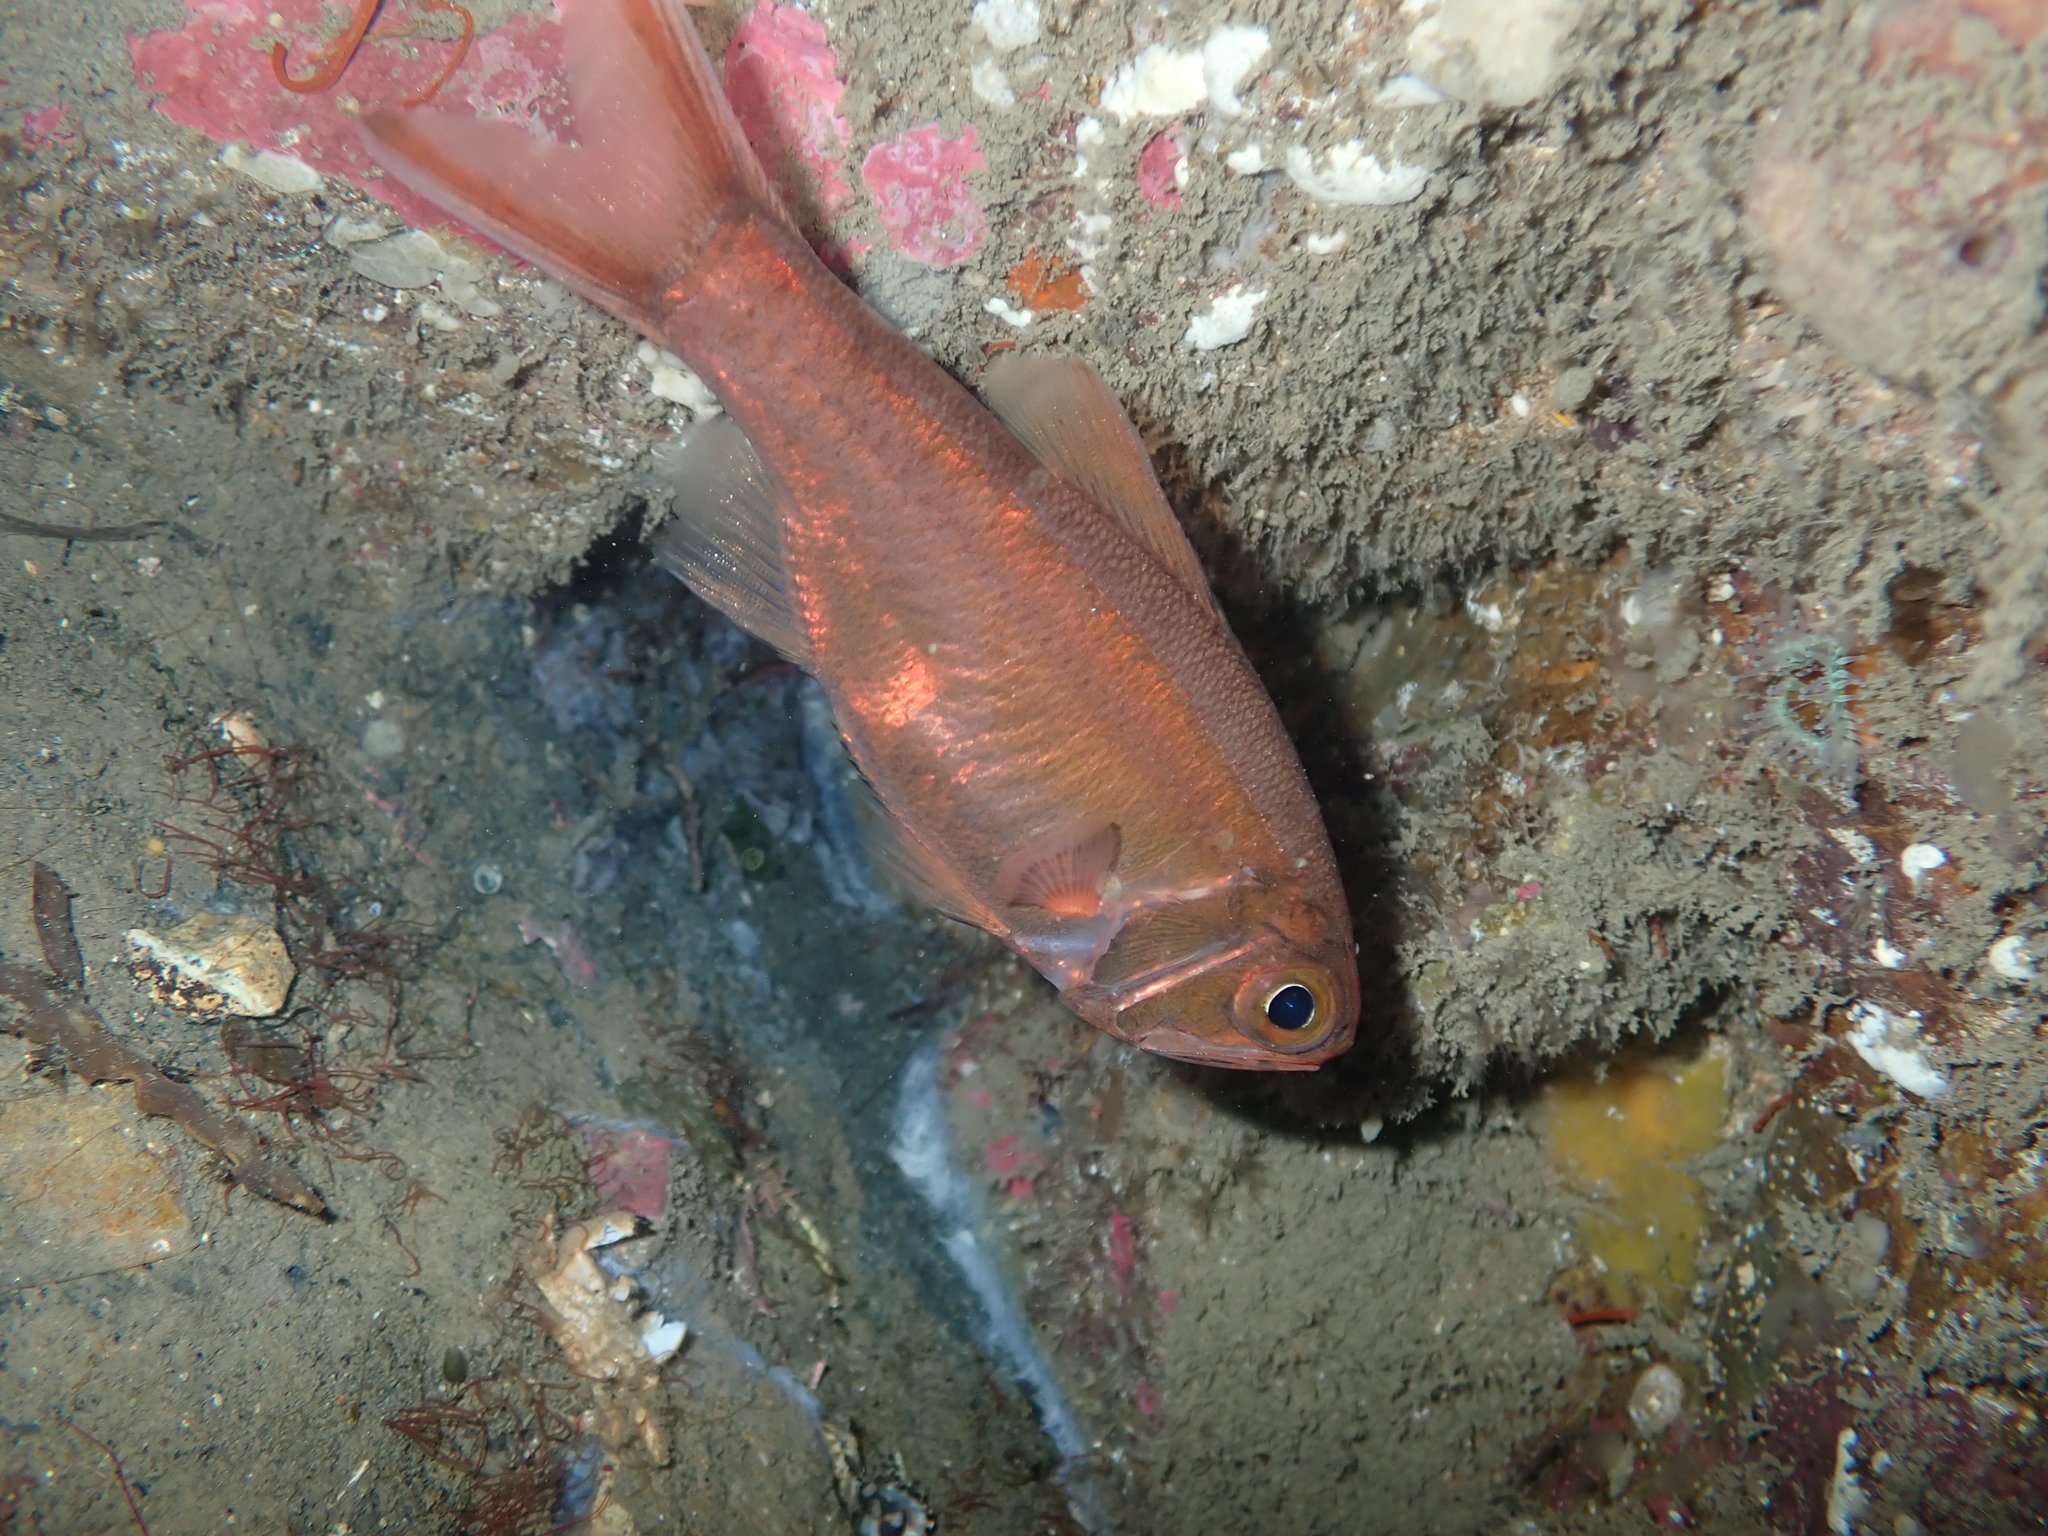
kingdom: Animalia
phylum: Chordata
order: Beryciformes
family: Trachichthyidae
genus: Optivus
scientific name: Optivus elongatus
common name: Slender roughy
